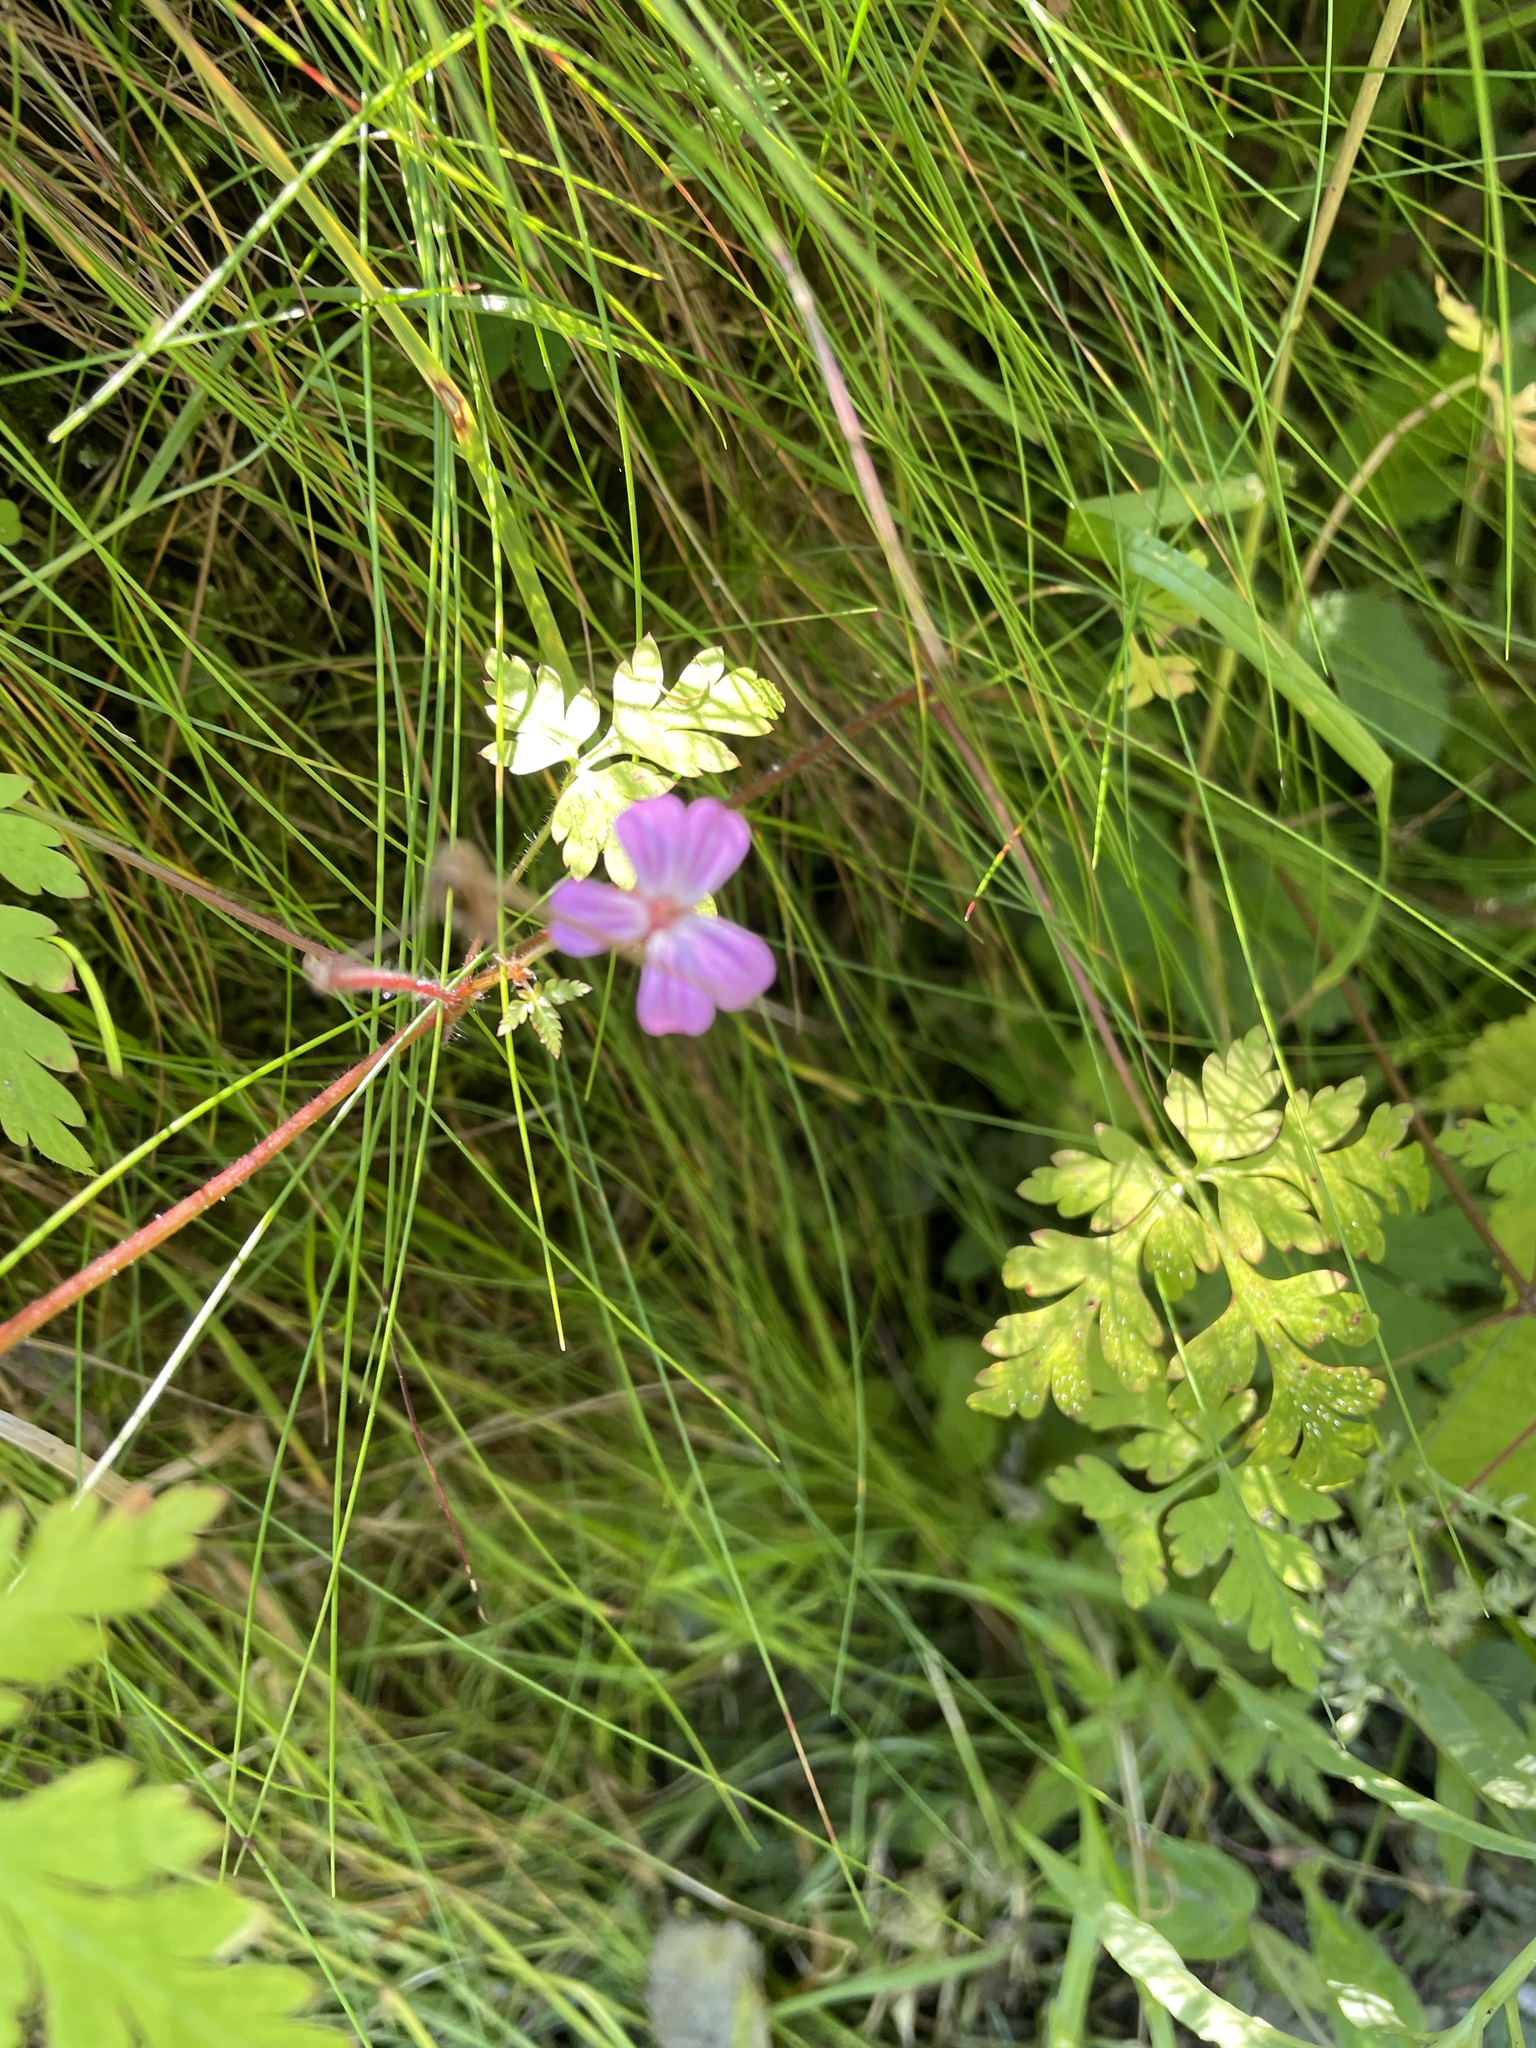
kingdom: Plantae
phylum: Tracheophyta
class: Magnoliopsida
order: Geraniales
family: Geraniaceae
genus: Geranium
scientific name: Geranium robertianum
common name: Herb-robert
